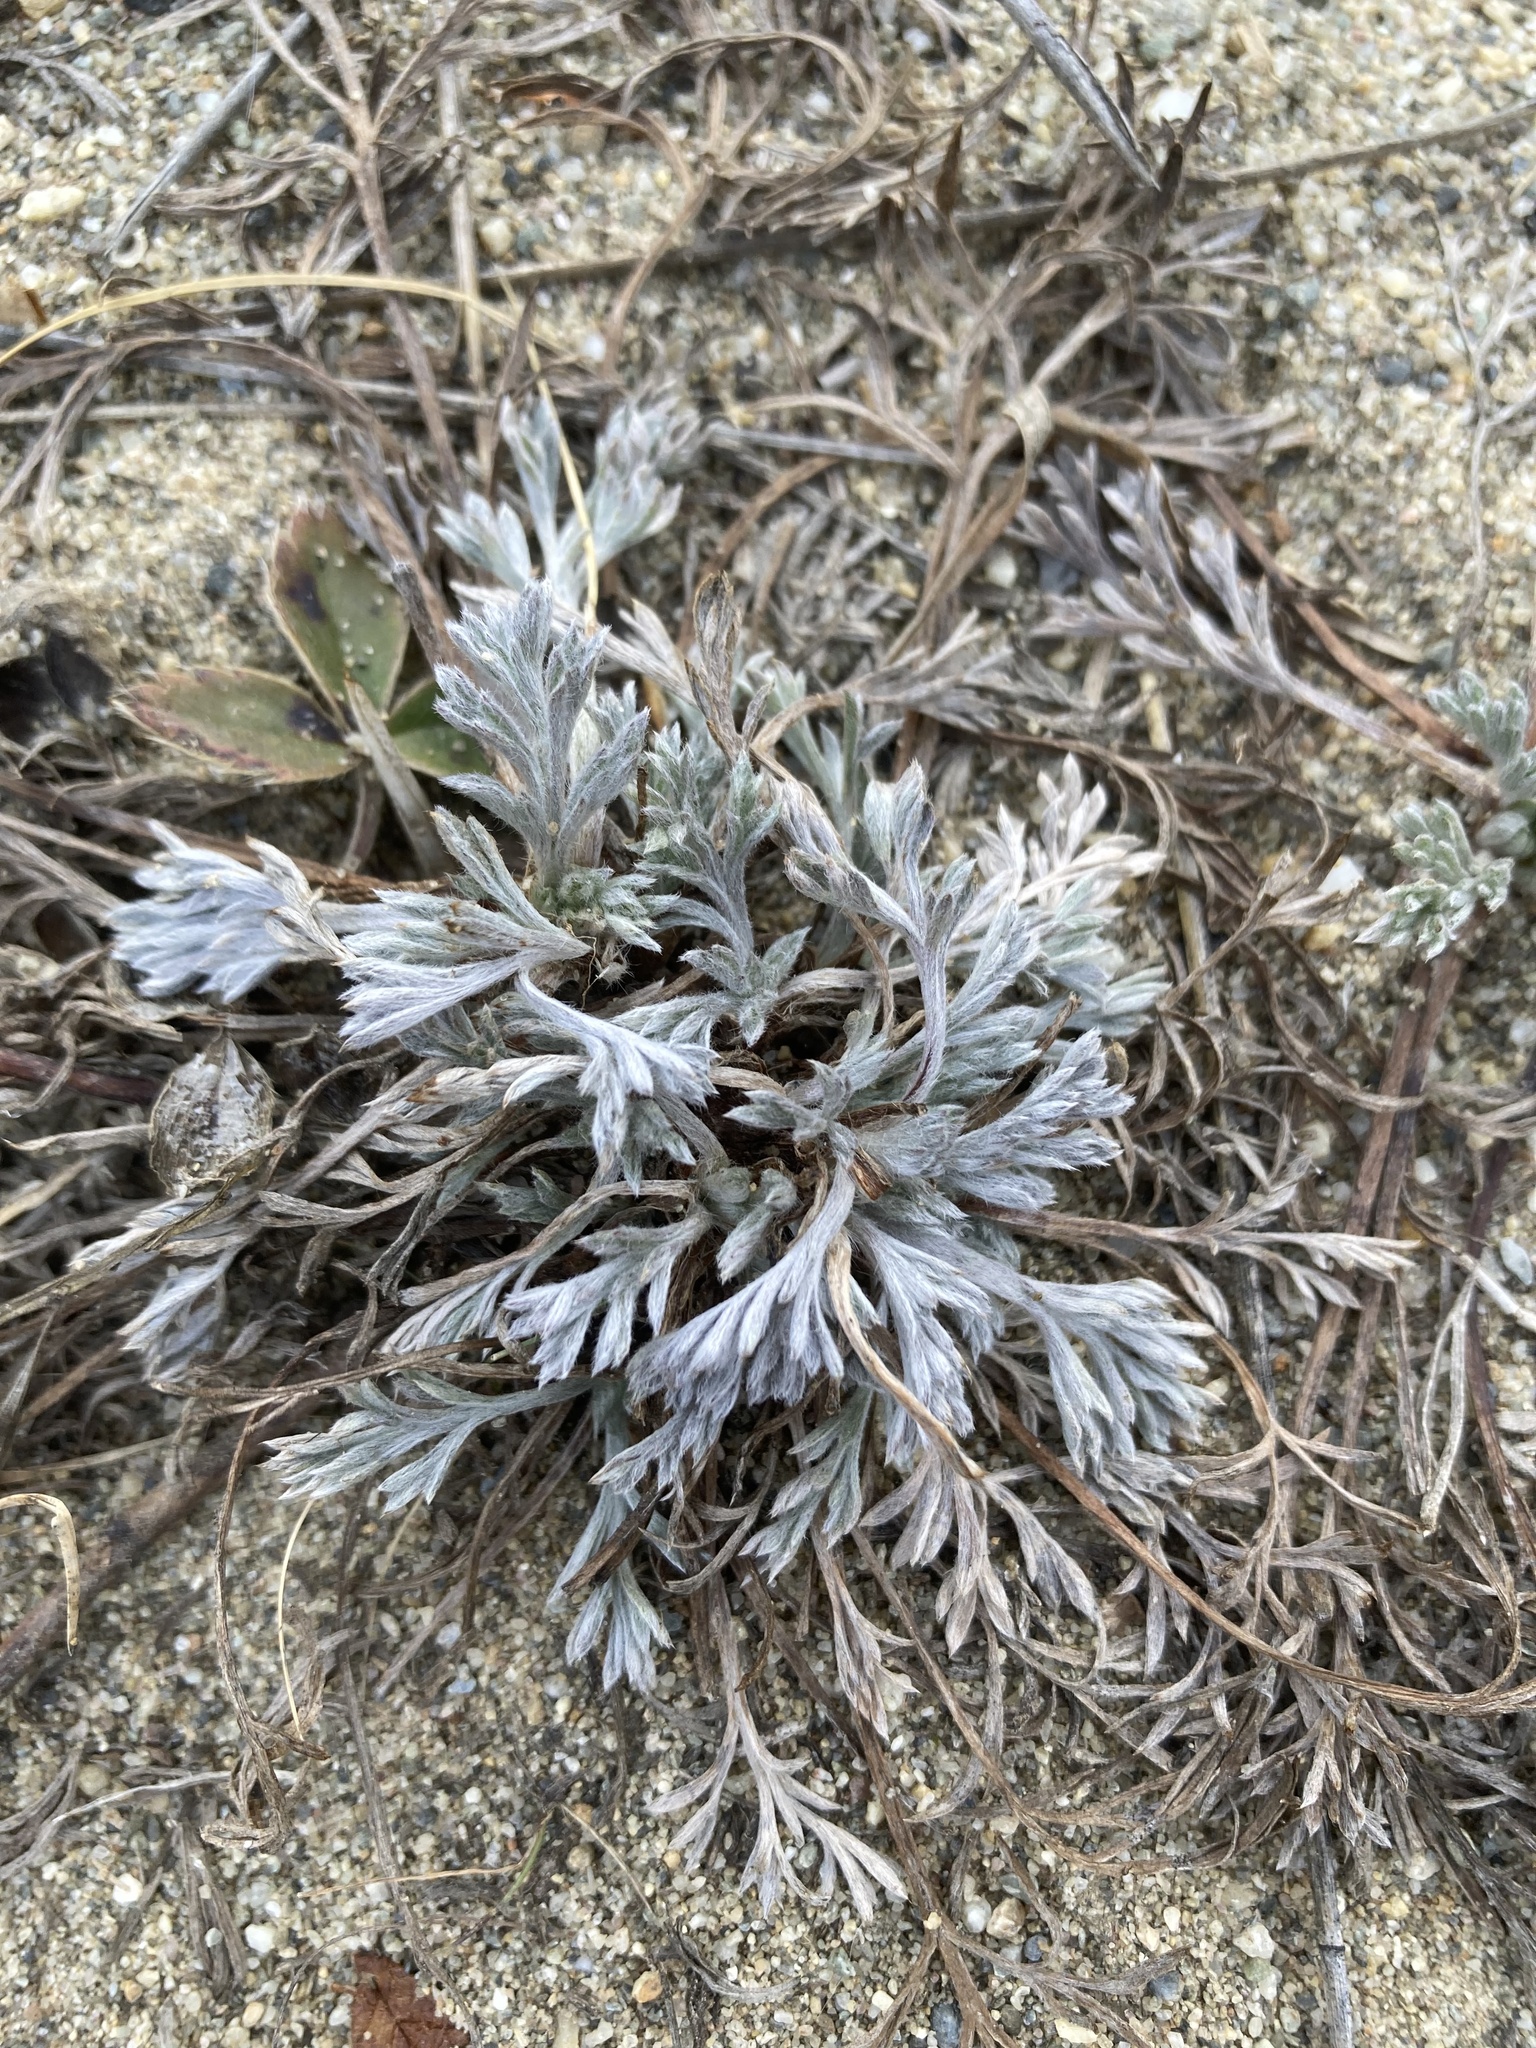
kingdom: Plantae
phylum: Tracheophyta
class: Magnoliopsida
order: Asterales
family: Asteraceae
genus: Artemisia
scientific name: Artemisia campestris
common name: Field wormwood
